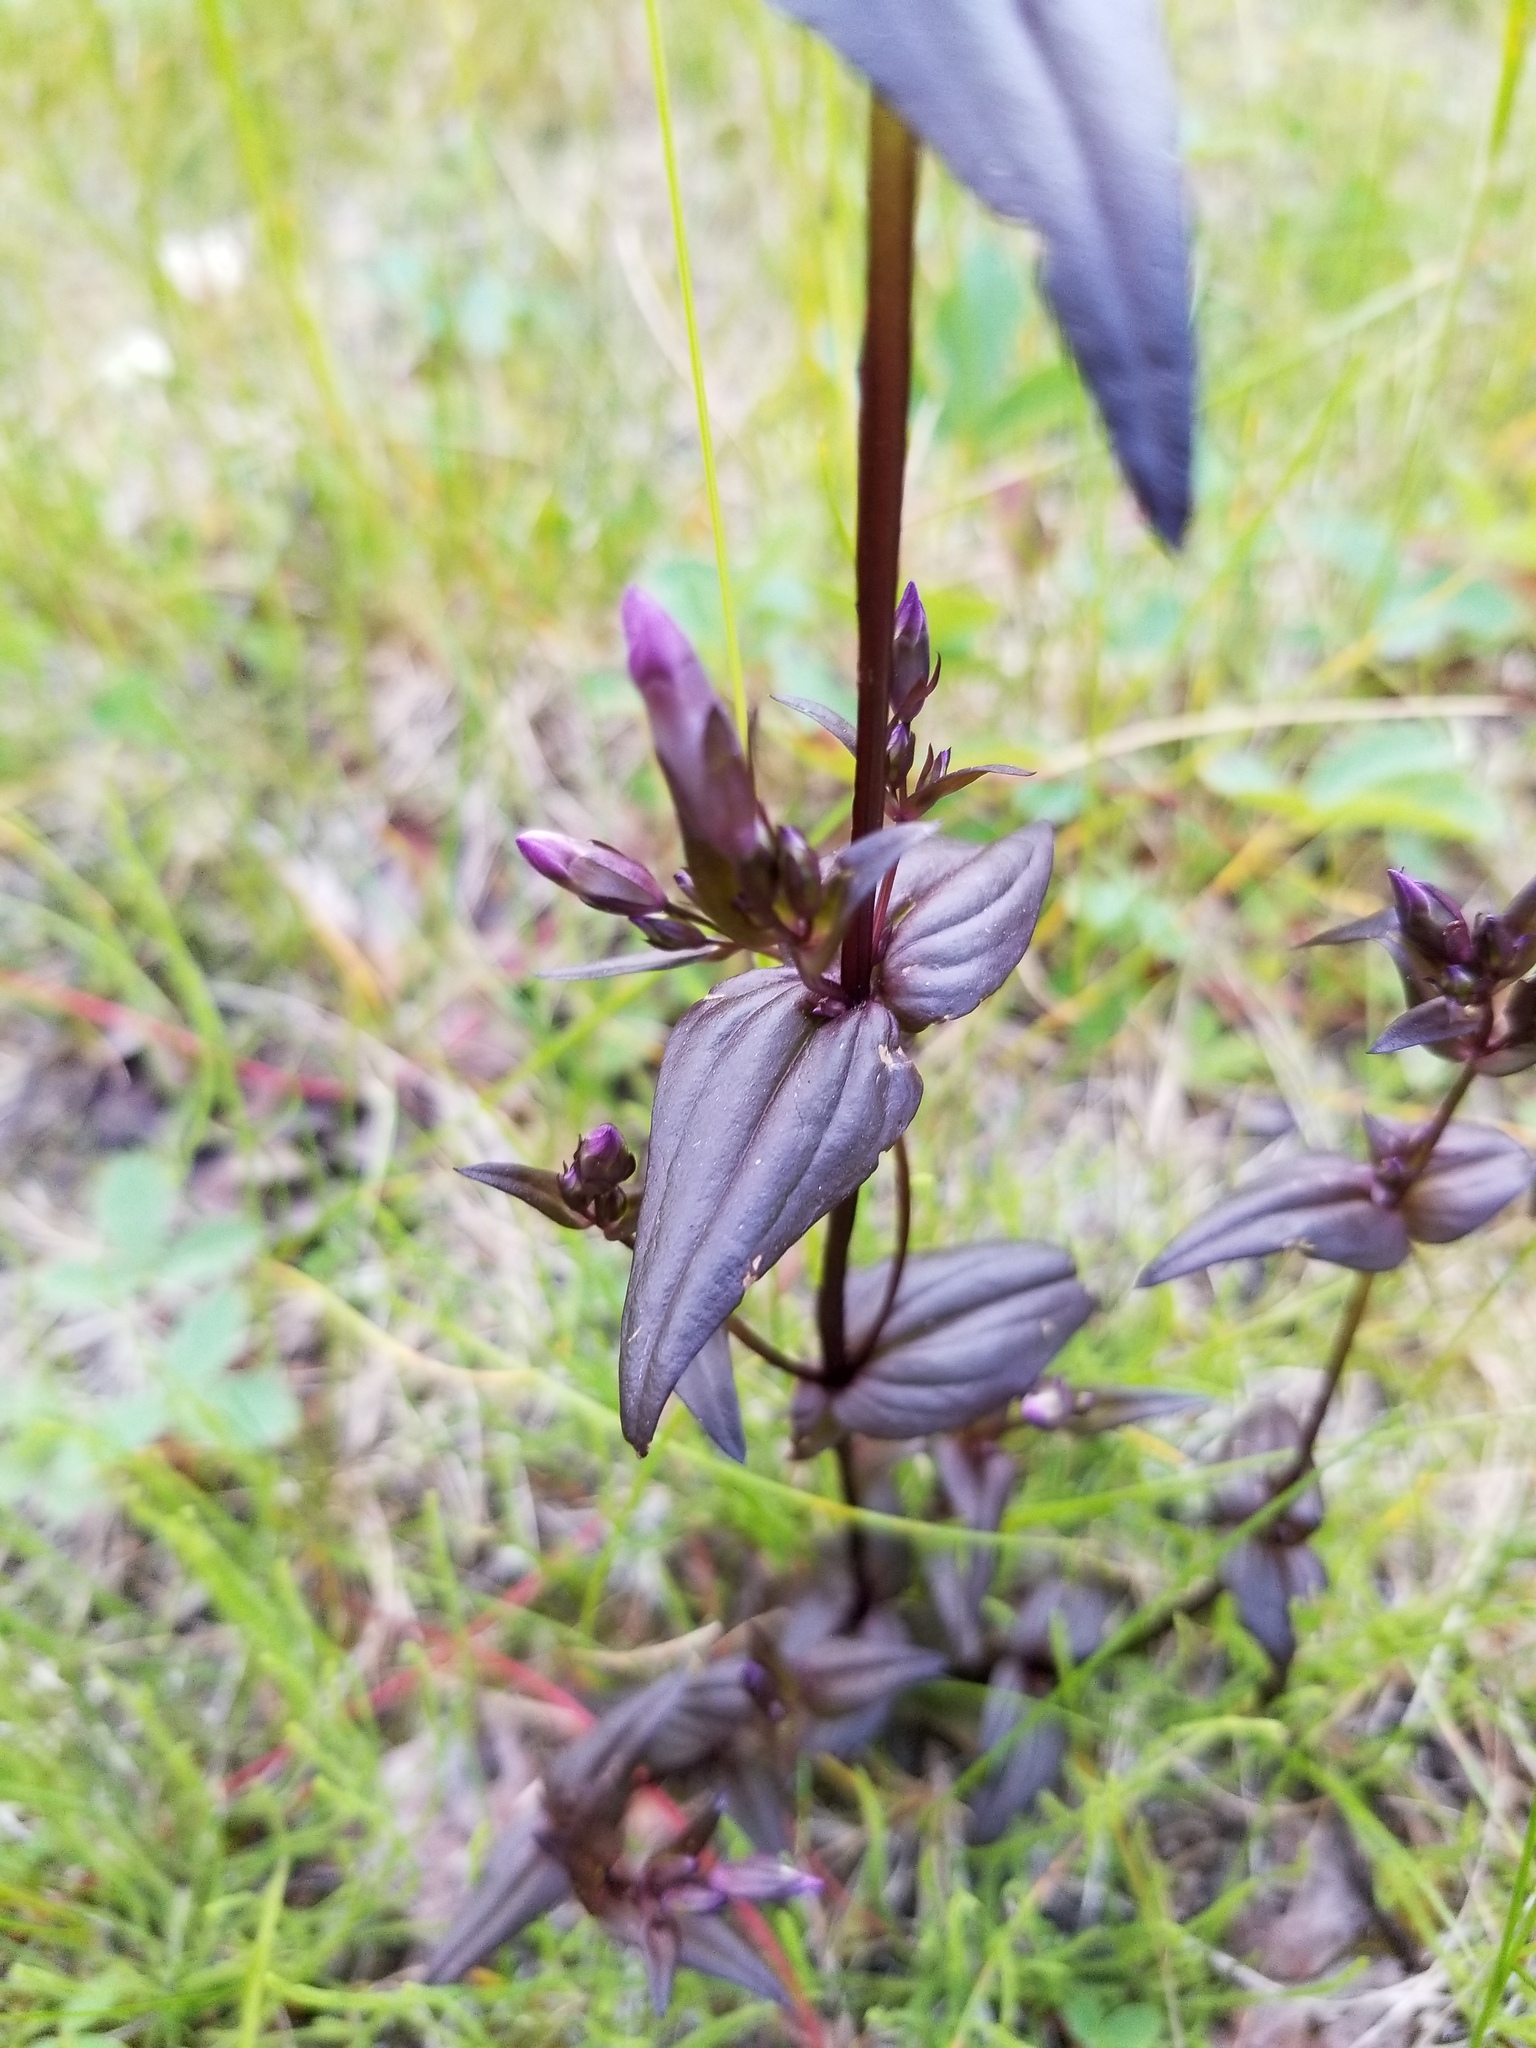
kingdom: Plantae
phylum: Tracheophyta
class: Magnoliopsida
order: Gentianales
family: Gentianaceae
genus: Gentianella
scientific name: Gentianella amarella
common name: Autumn gentian
